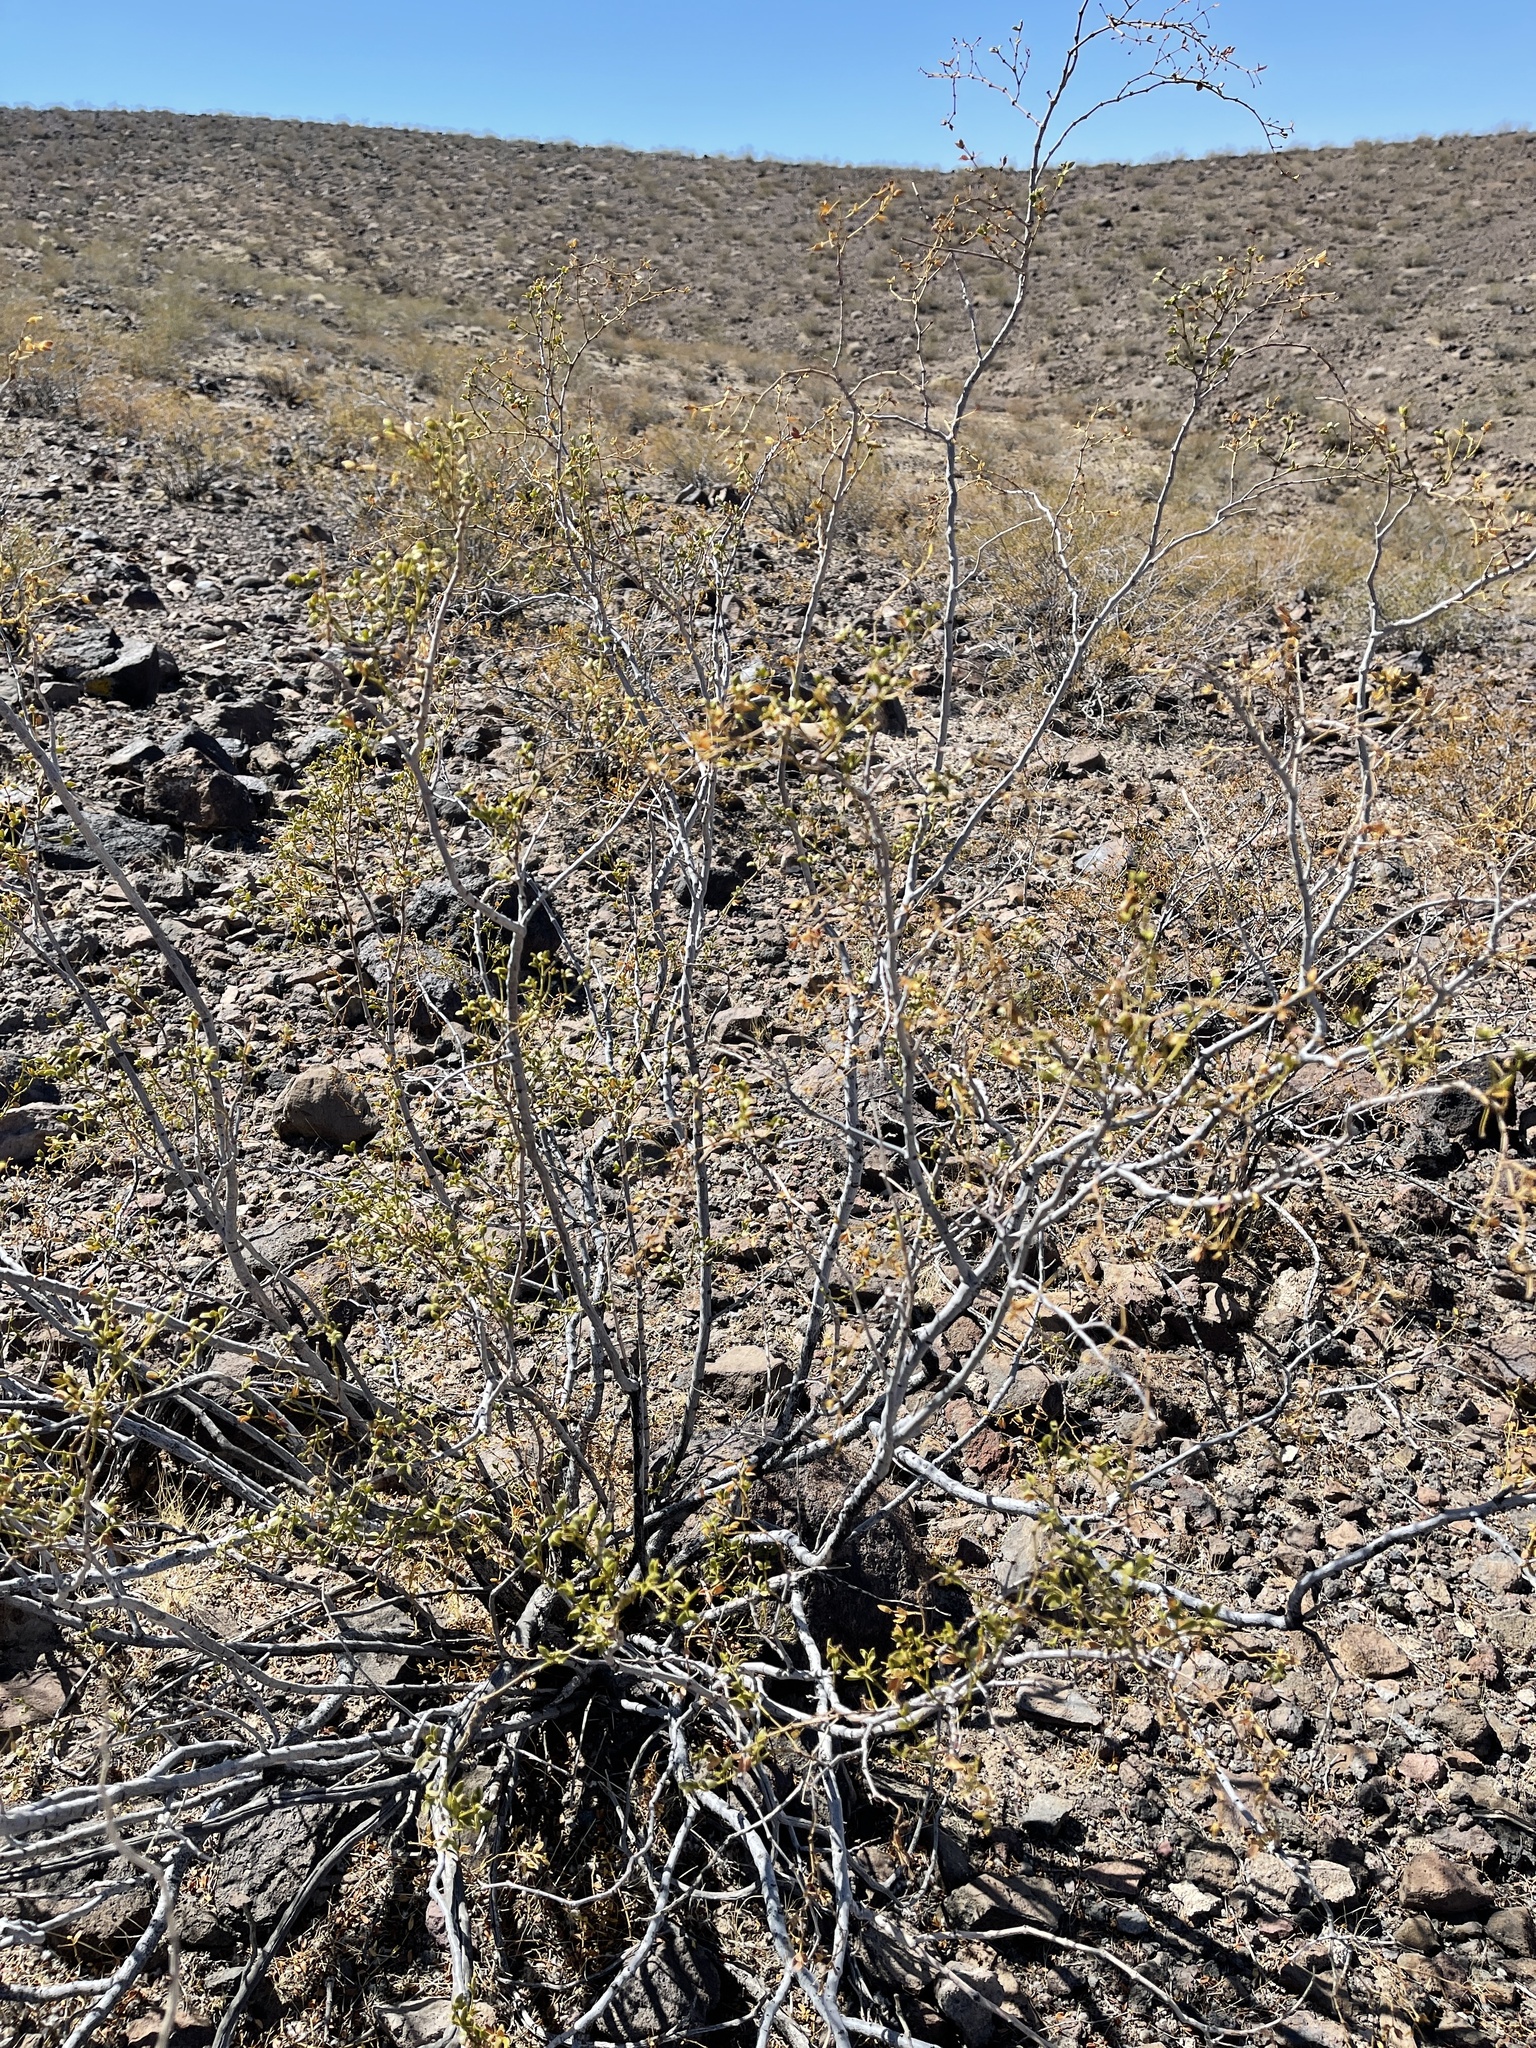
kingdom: Plantae
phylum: Tracheophyta
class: Magnoliopsida
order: Zygophyllales
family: Zygophyllaceae
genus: Larrea
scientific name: Larrea tridentata
